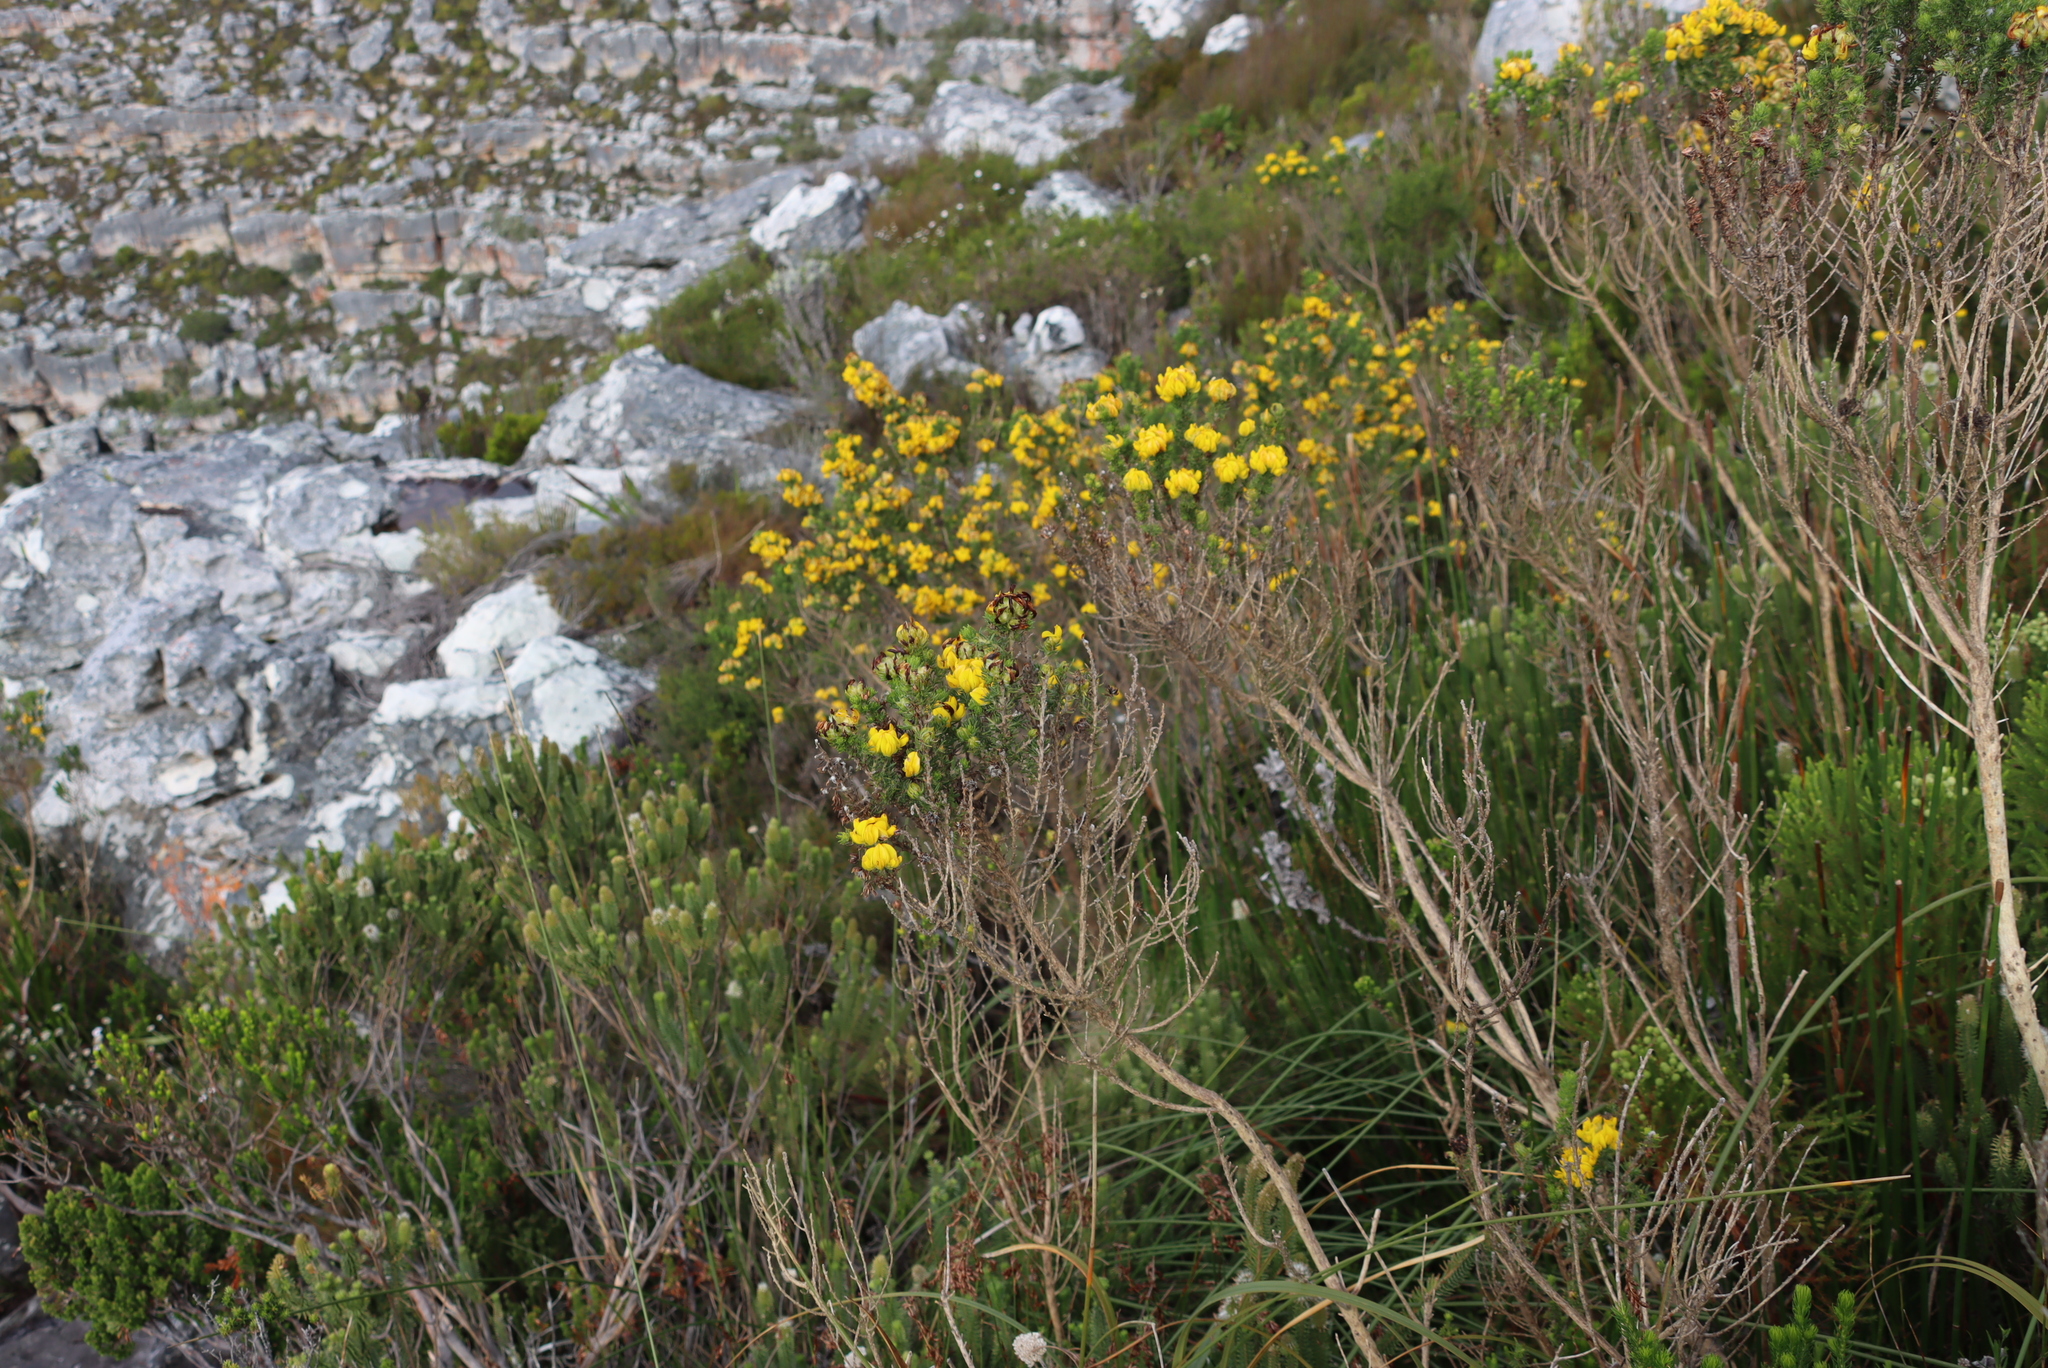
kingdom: Plantae
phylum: Tracheophyta
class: Magnoliopsida
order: Fabales
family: Fabaceae
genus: Aspalathus
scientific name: Aspalathus capitata
